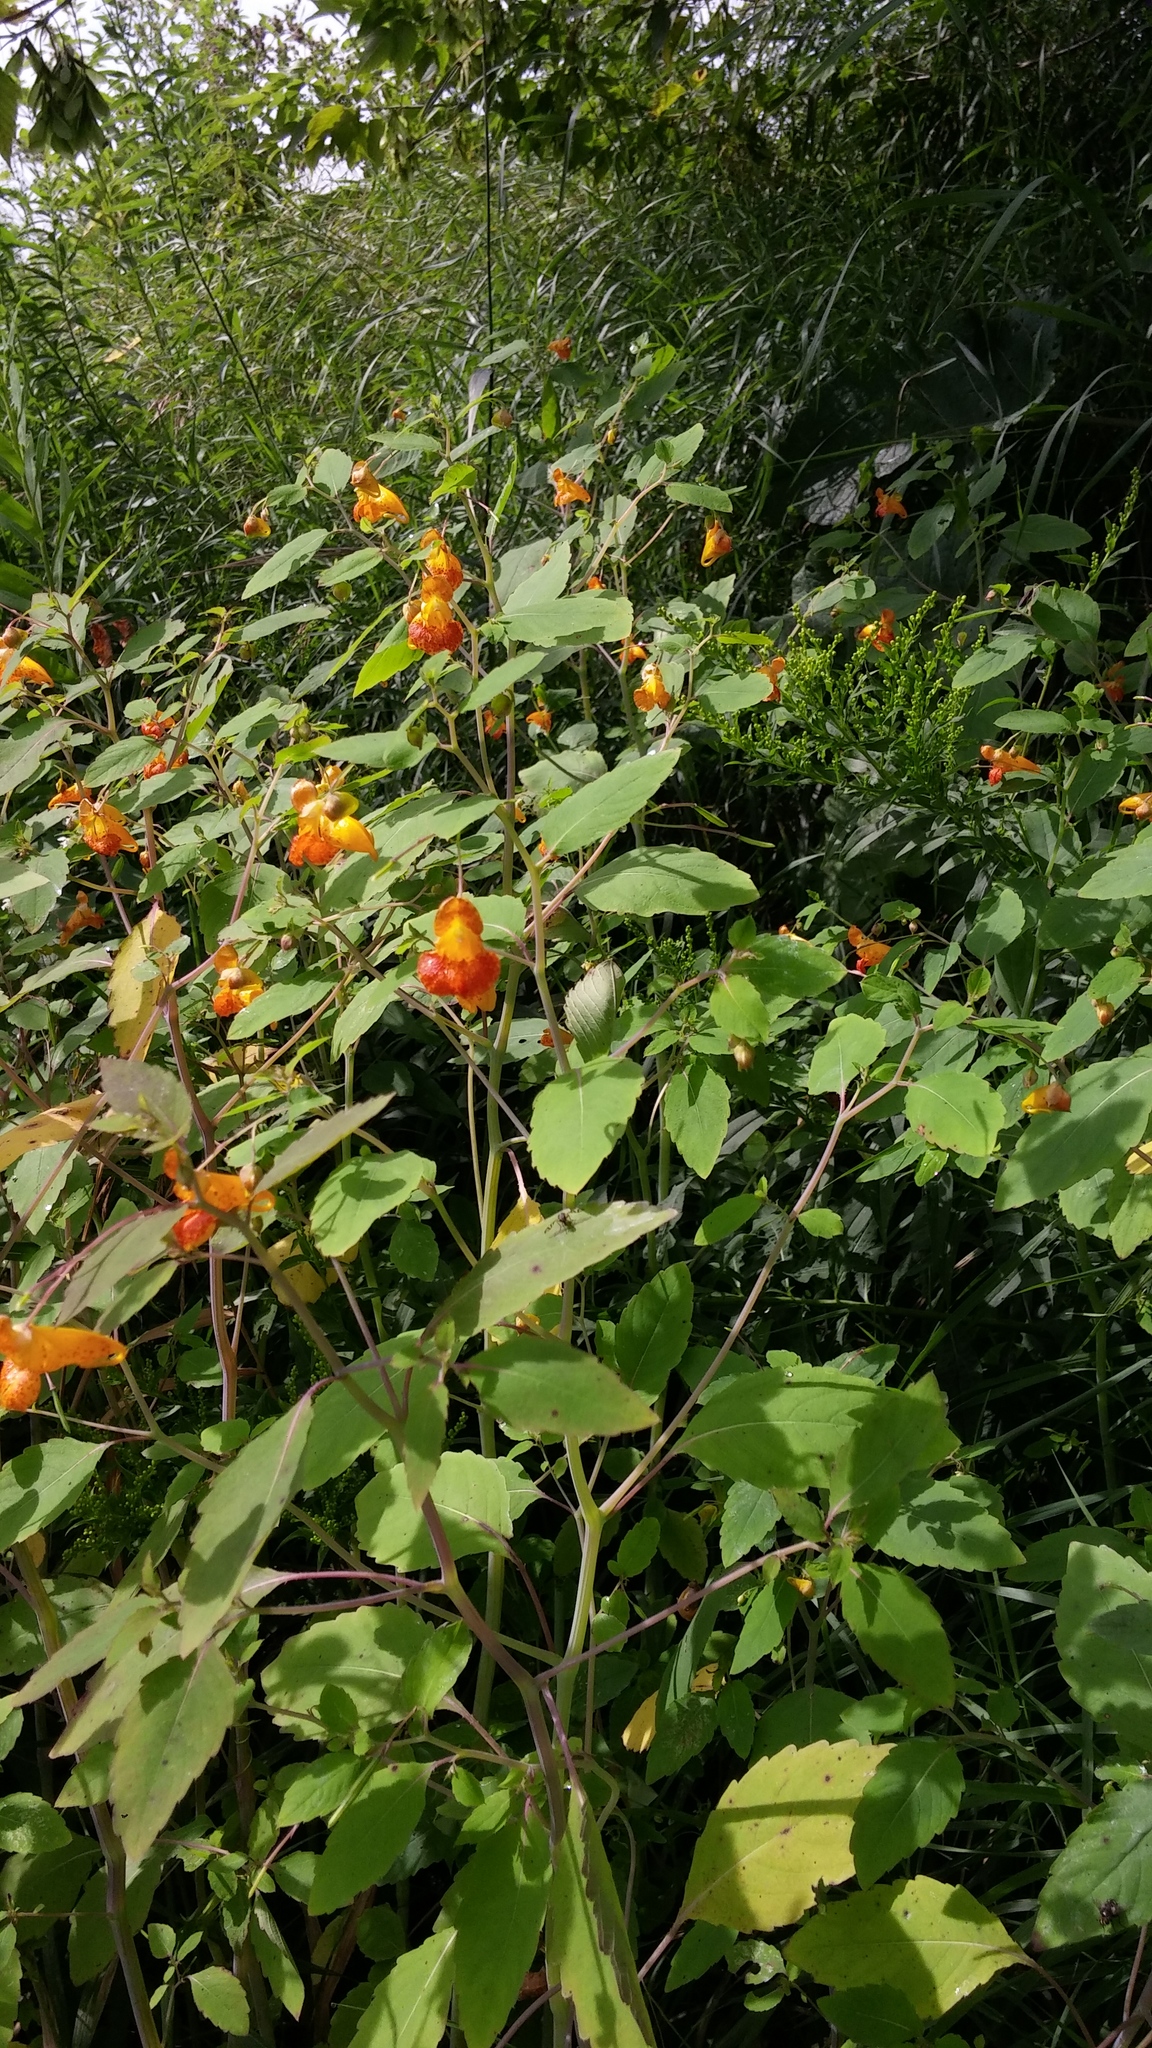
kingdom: Plantae
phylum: Tracheophyta
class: Magnoliopsida
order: Ericales
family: Balsaminaceae
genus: Impatiens
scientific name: Impatiens capensis
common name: Orange balsam
